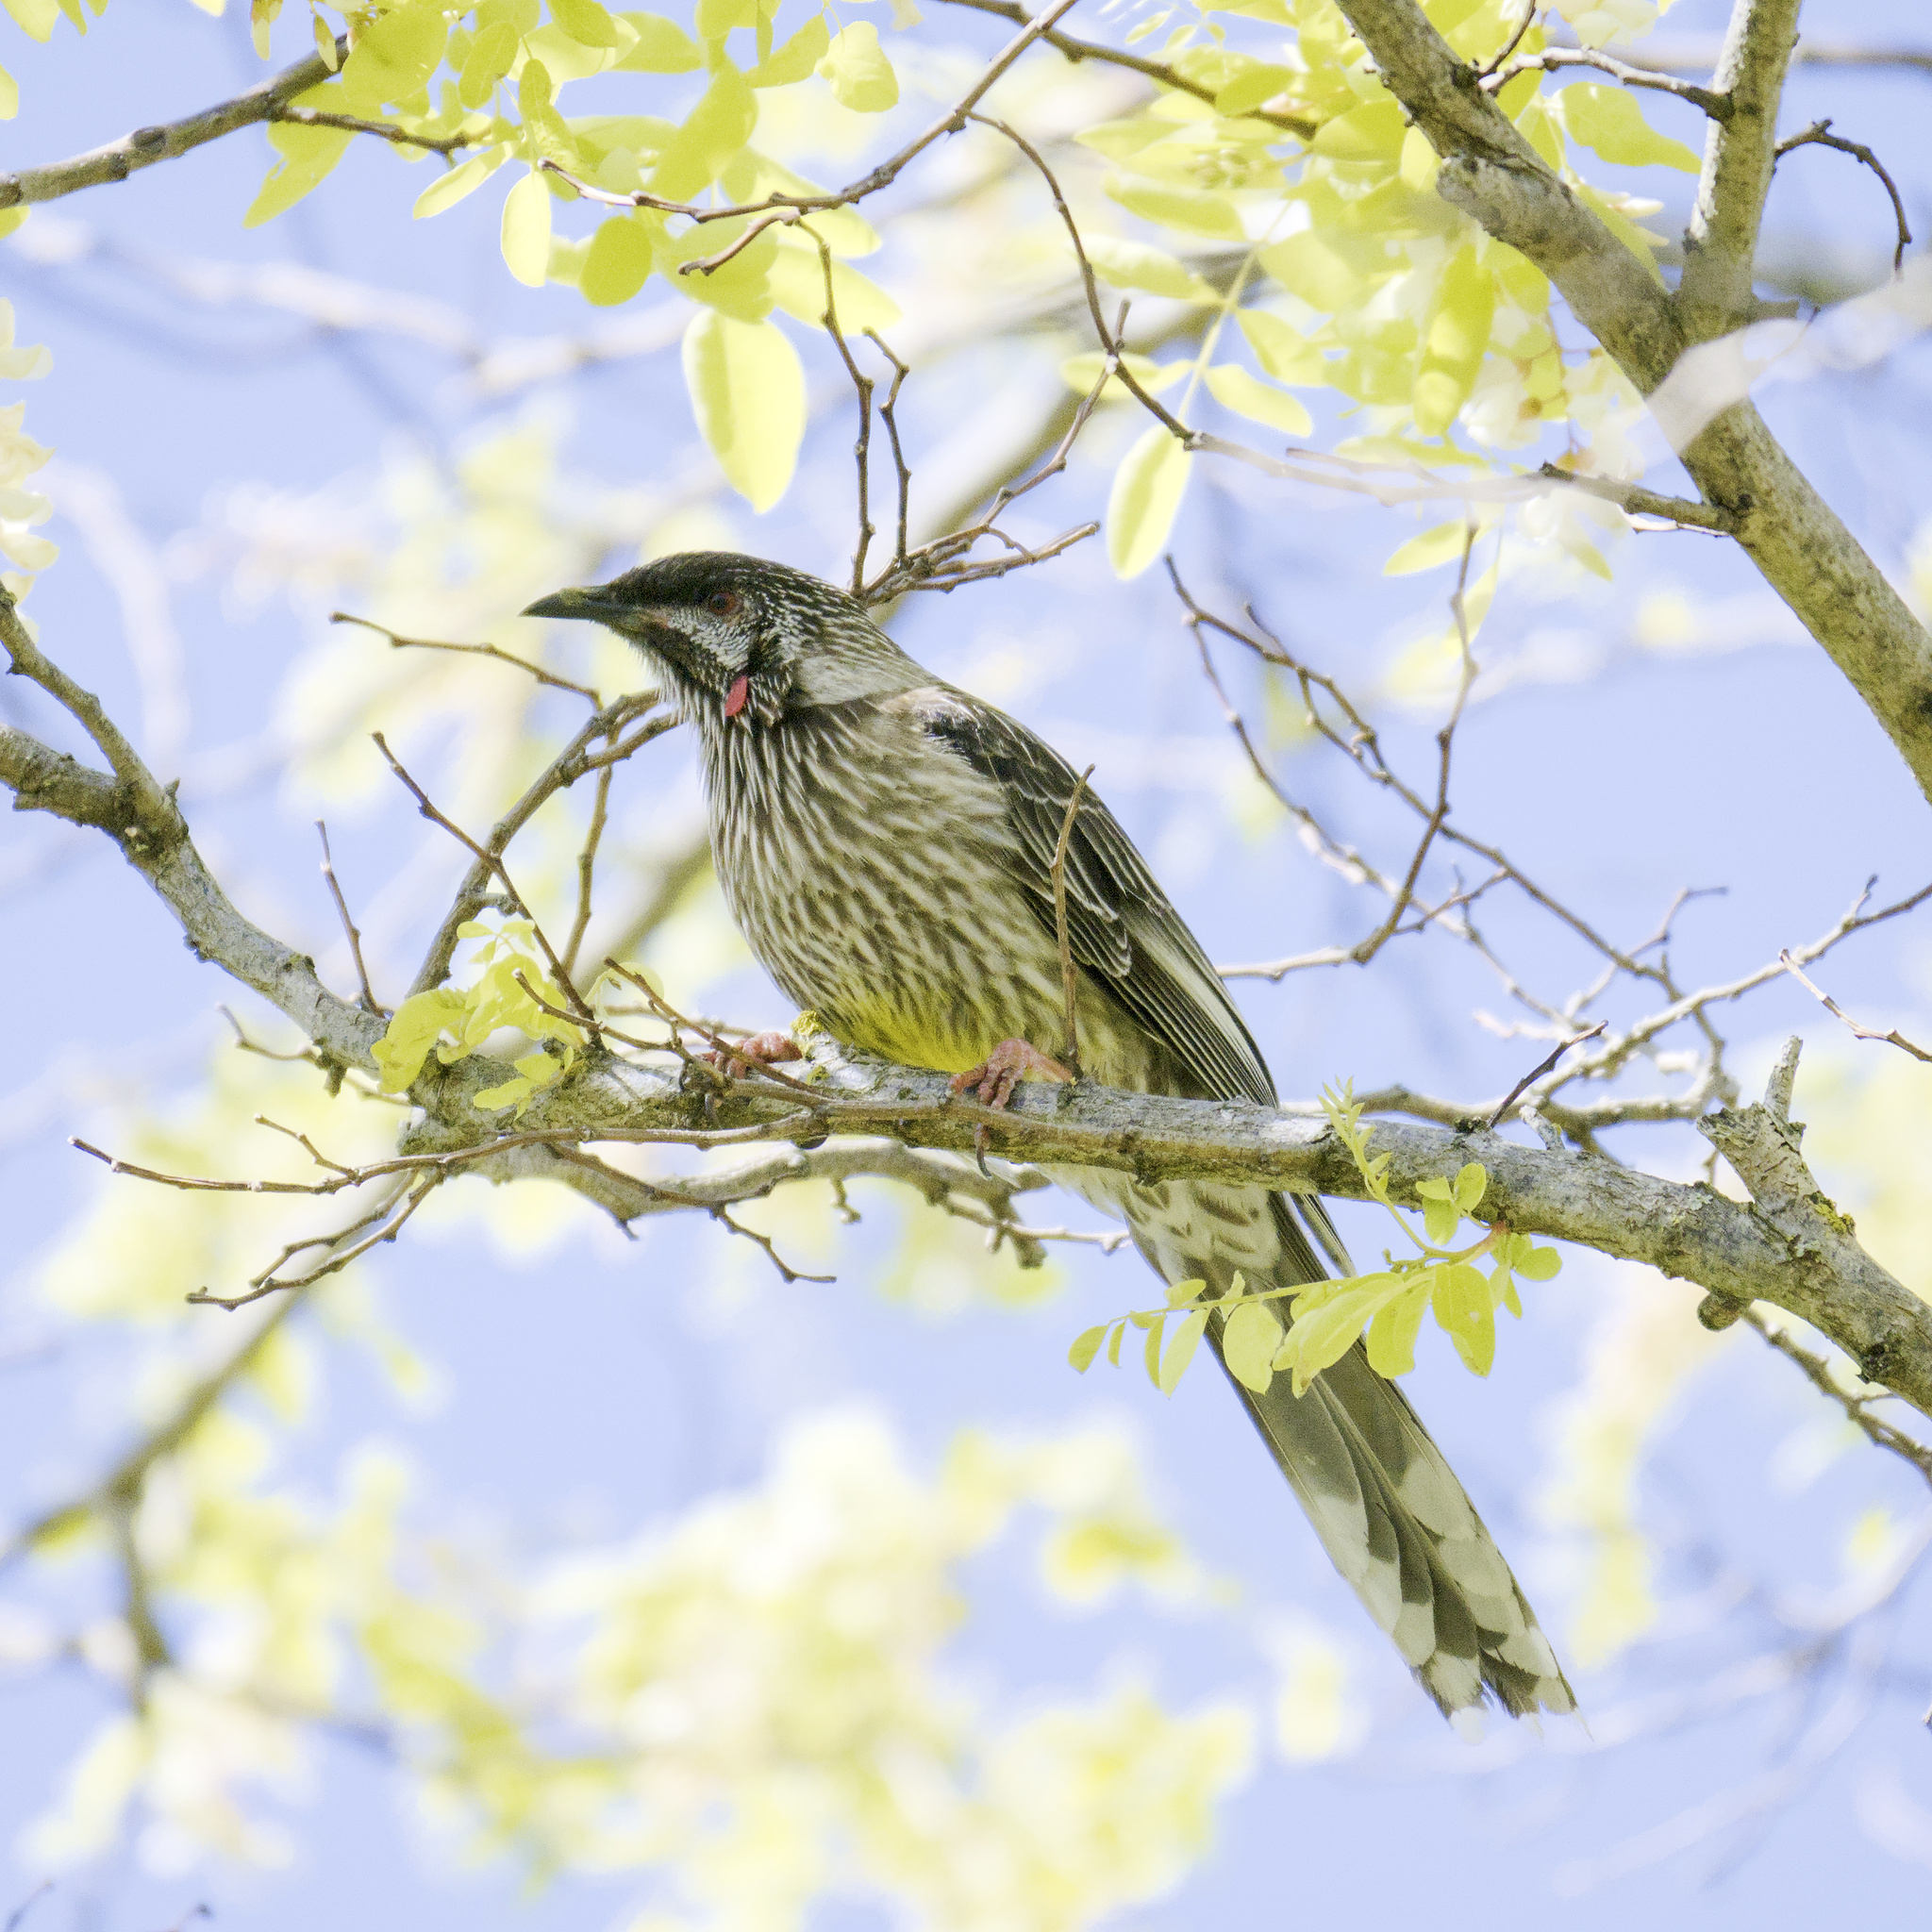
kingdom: Animalia
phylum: Chordata
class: Aves
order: Passeriformes
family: Meliphagidae
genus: Anthochaera
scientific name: Anthochaera carunculata
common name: Red wattlebird
